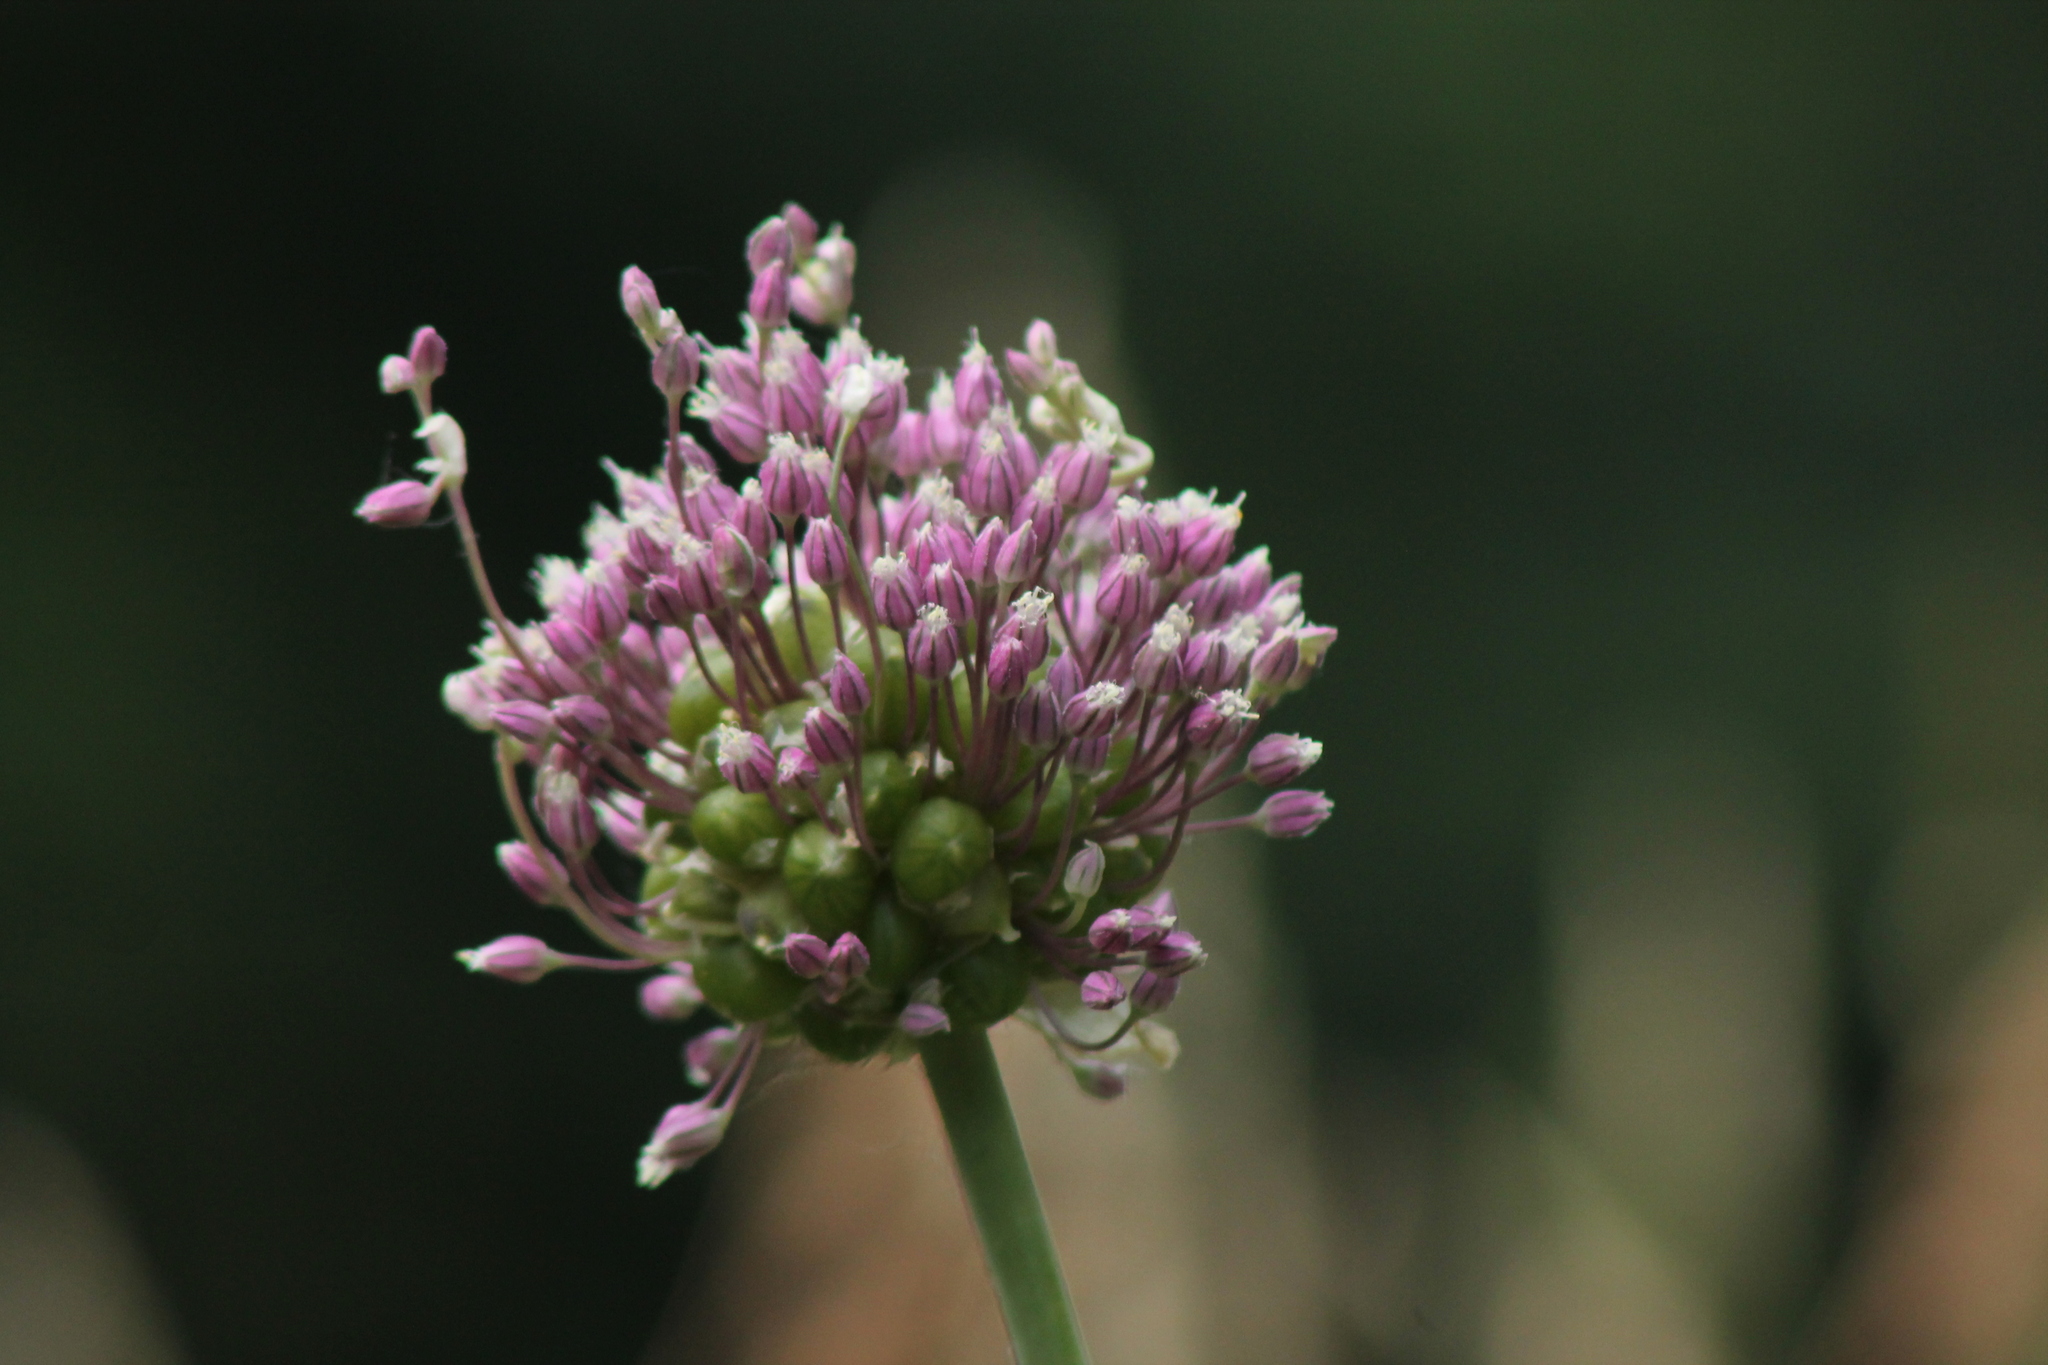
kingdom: Plantae
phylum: Tracheophyta
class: Liliopsida
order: Asparagales
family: Amaryllidaceae
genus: Allium
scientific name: Allium vineale
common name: Crow garlic
